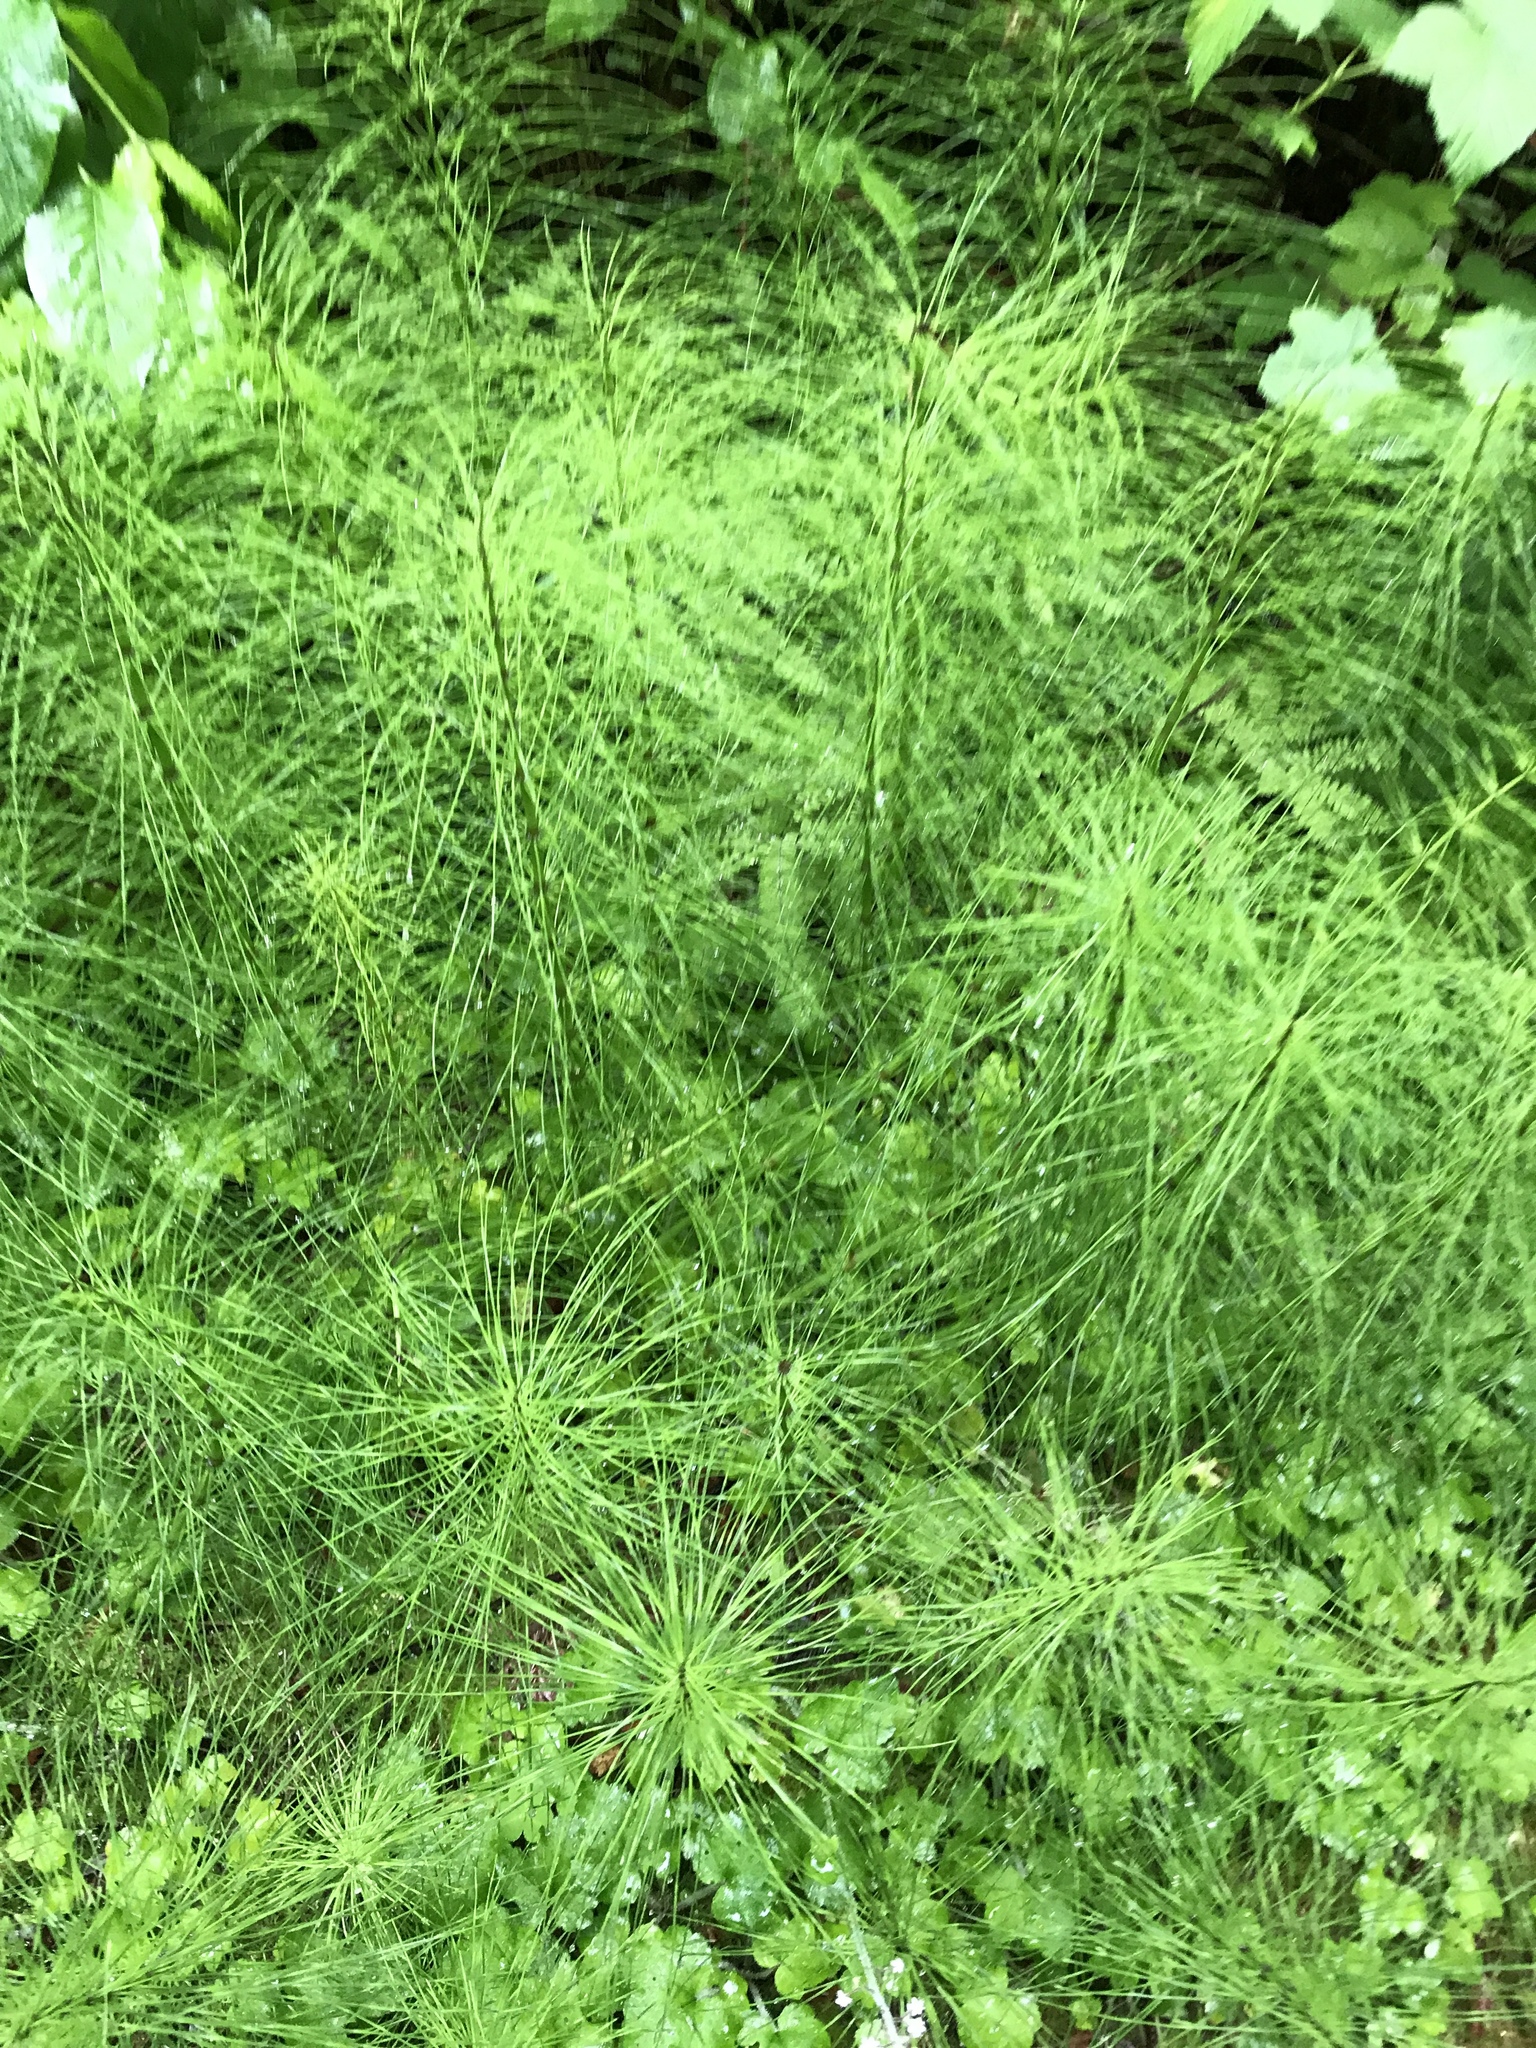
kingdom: Plantae
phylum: Tracheophyta
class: Polypodiopsida
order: Equisetales
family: Equisetaceae
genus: Equisetum
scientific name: Equisetum telmateia
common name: Great horsetail
